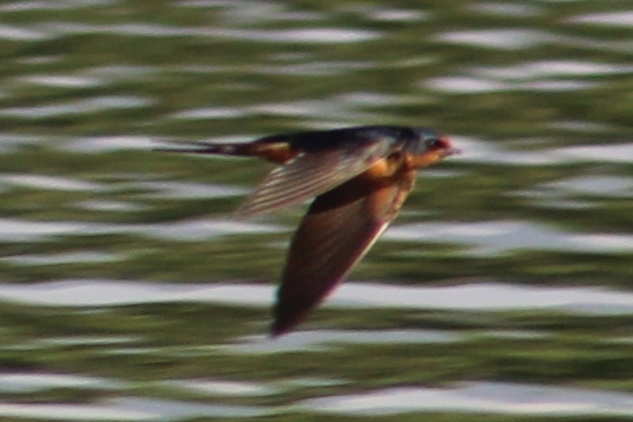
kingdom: Animalia
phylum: Chordata
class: Aves
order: Passeriformes
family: Hirundinidae
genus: Hirundo
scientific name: Hirundo rustica
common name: Barn swallow
